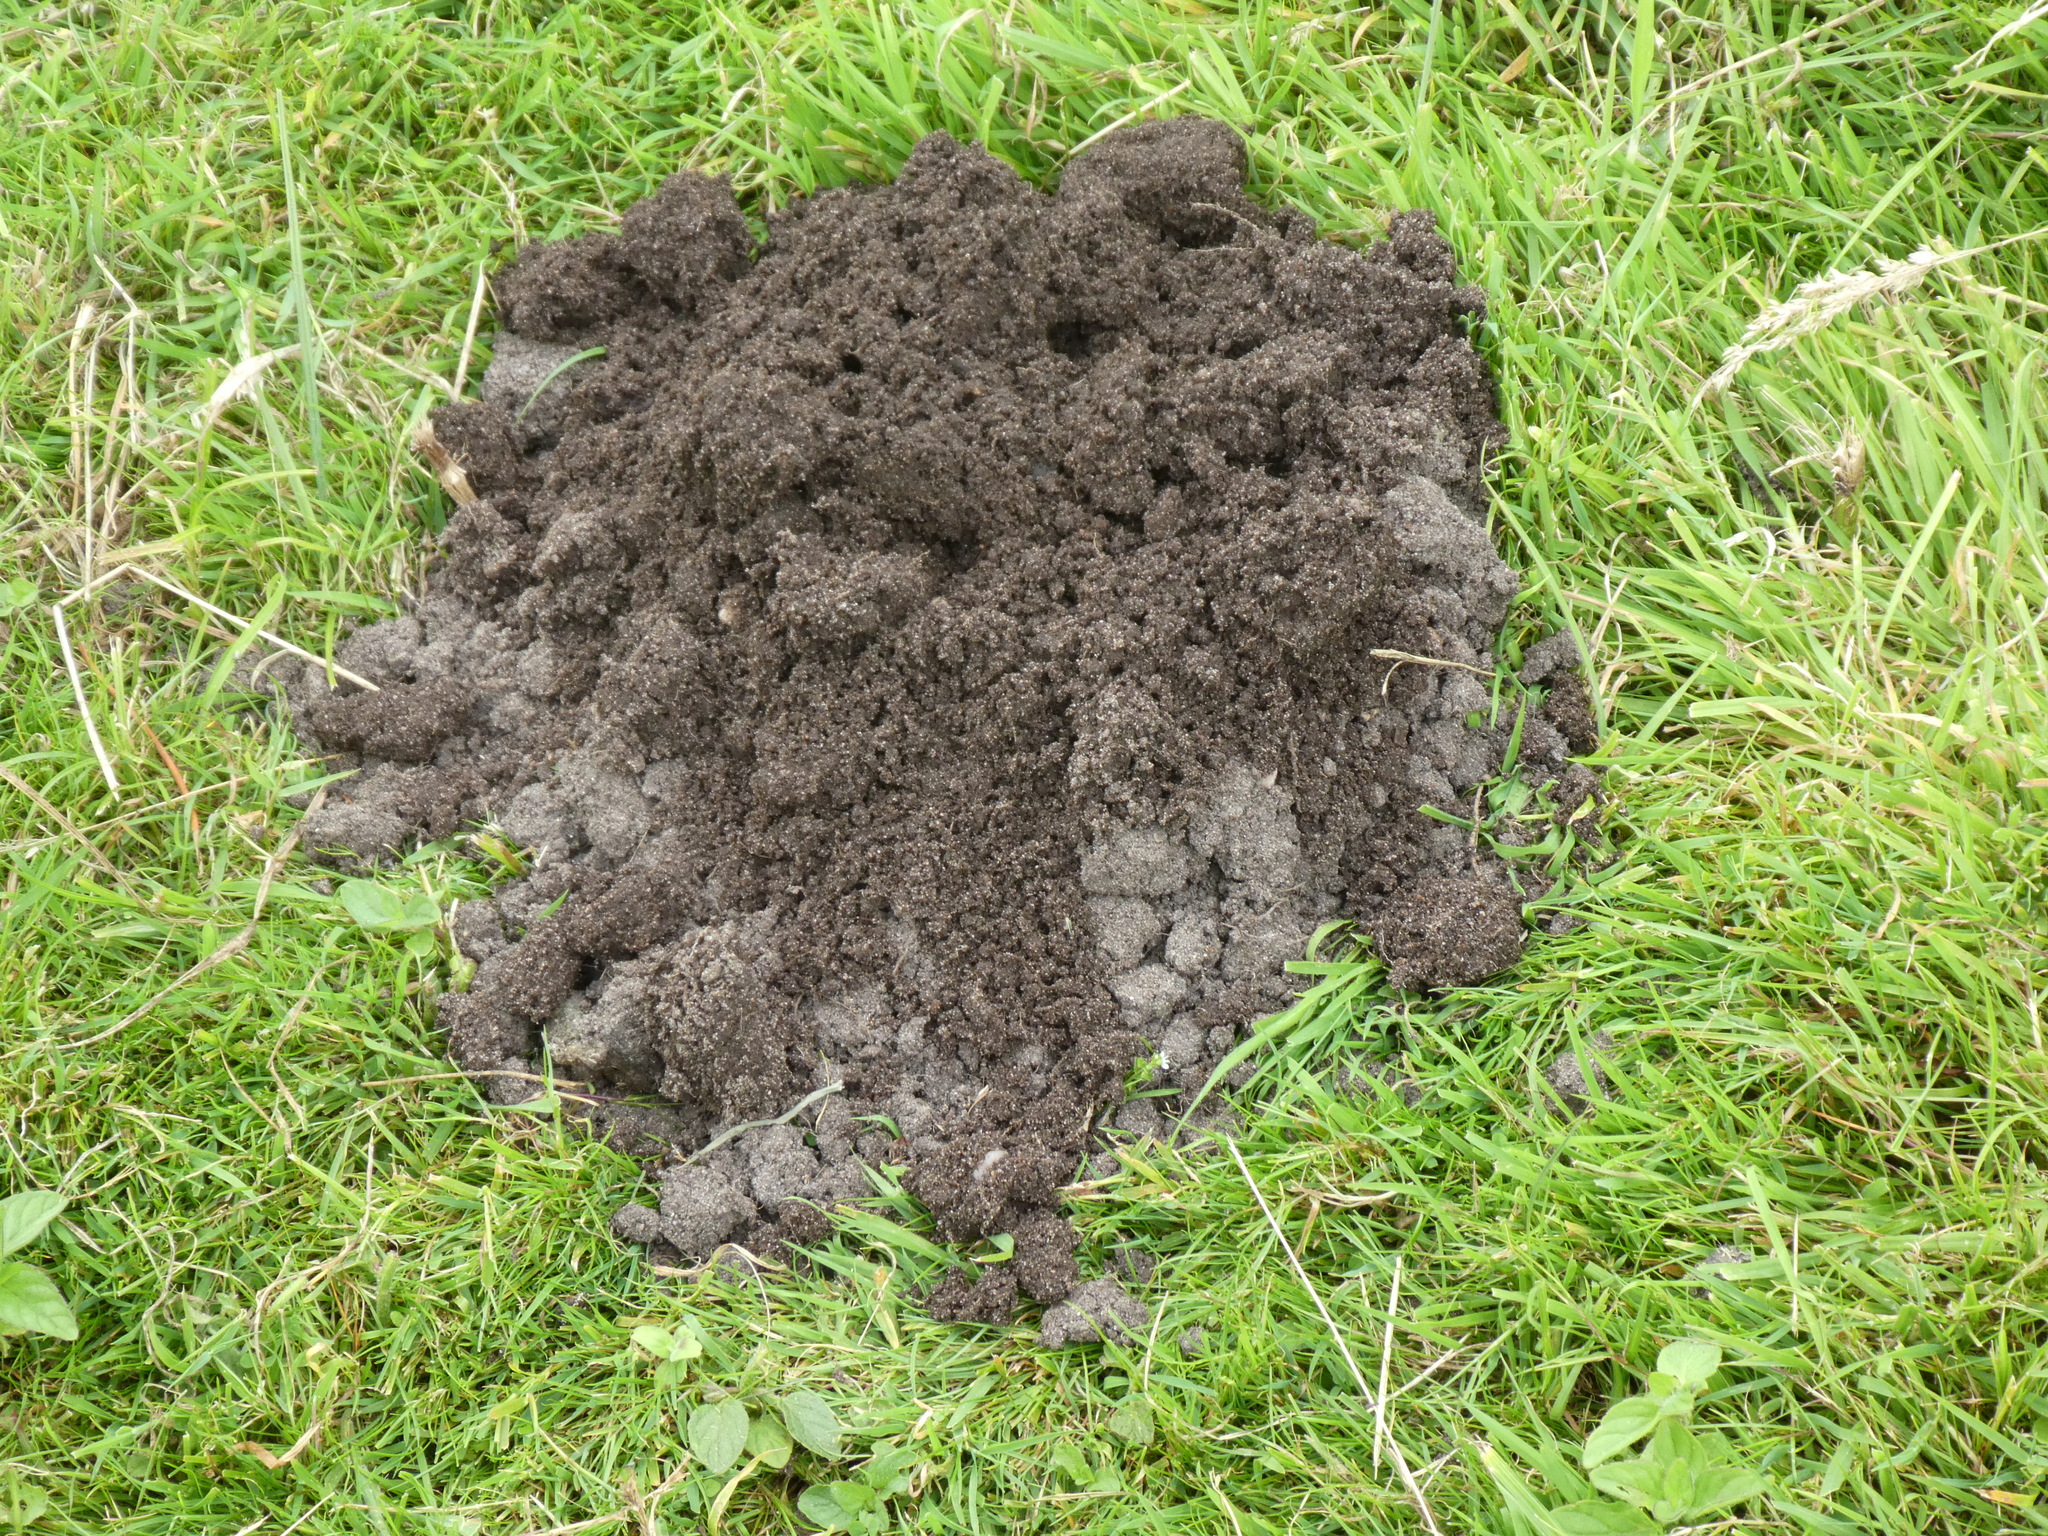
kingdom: Animalia
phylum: Chordata
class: Mammalia
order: Soricomorpha
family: Talpidae
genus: Talpa
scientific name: Talpa europaea
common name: European mole
